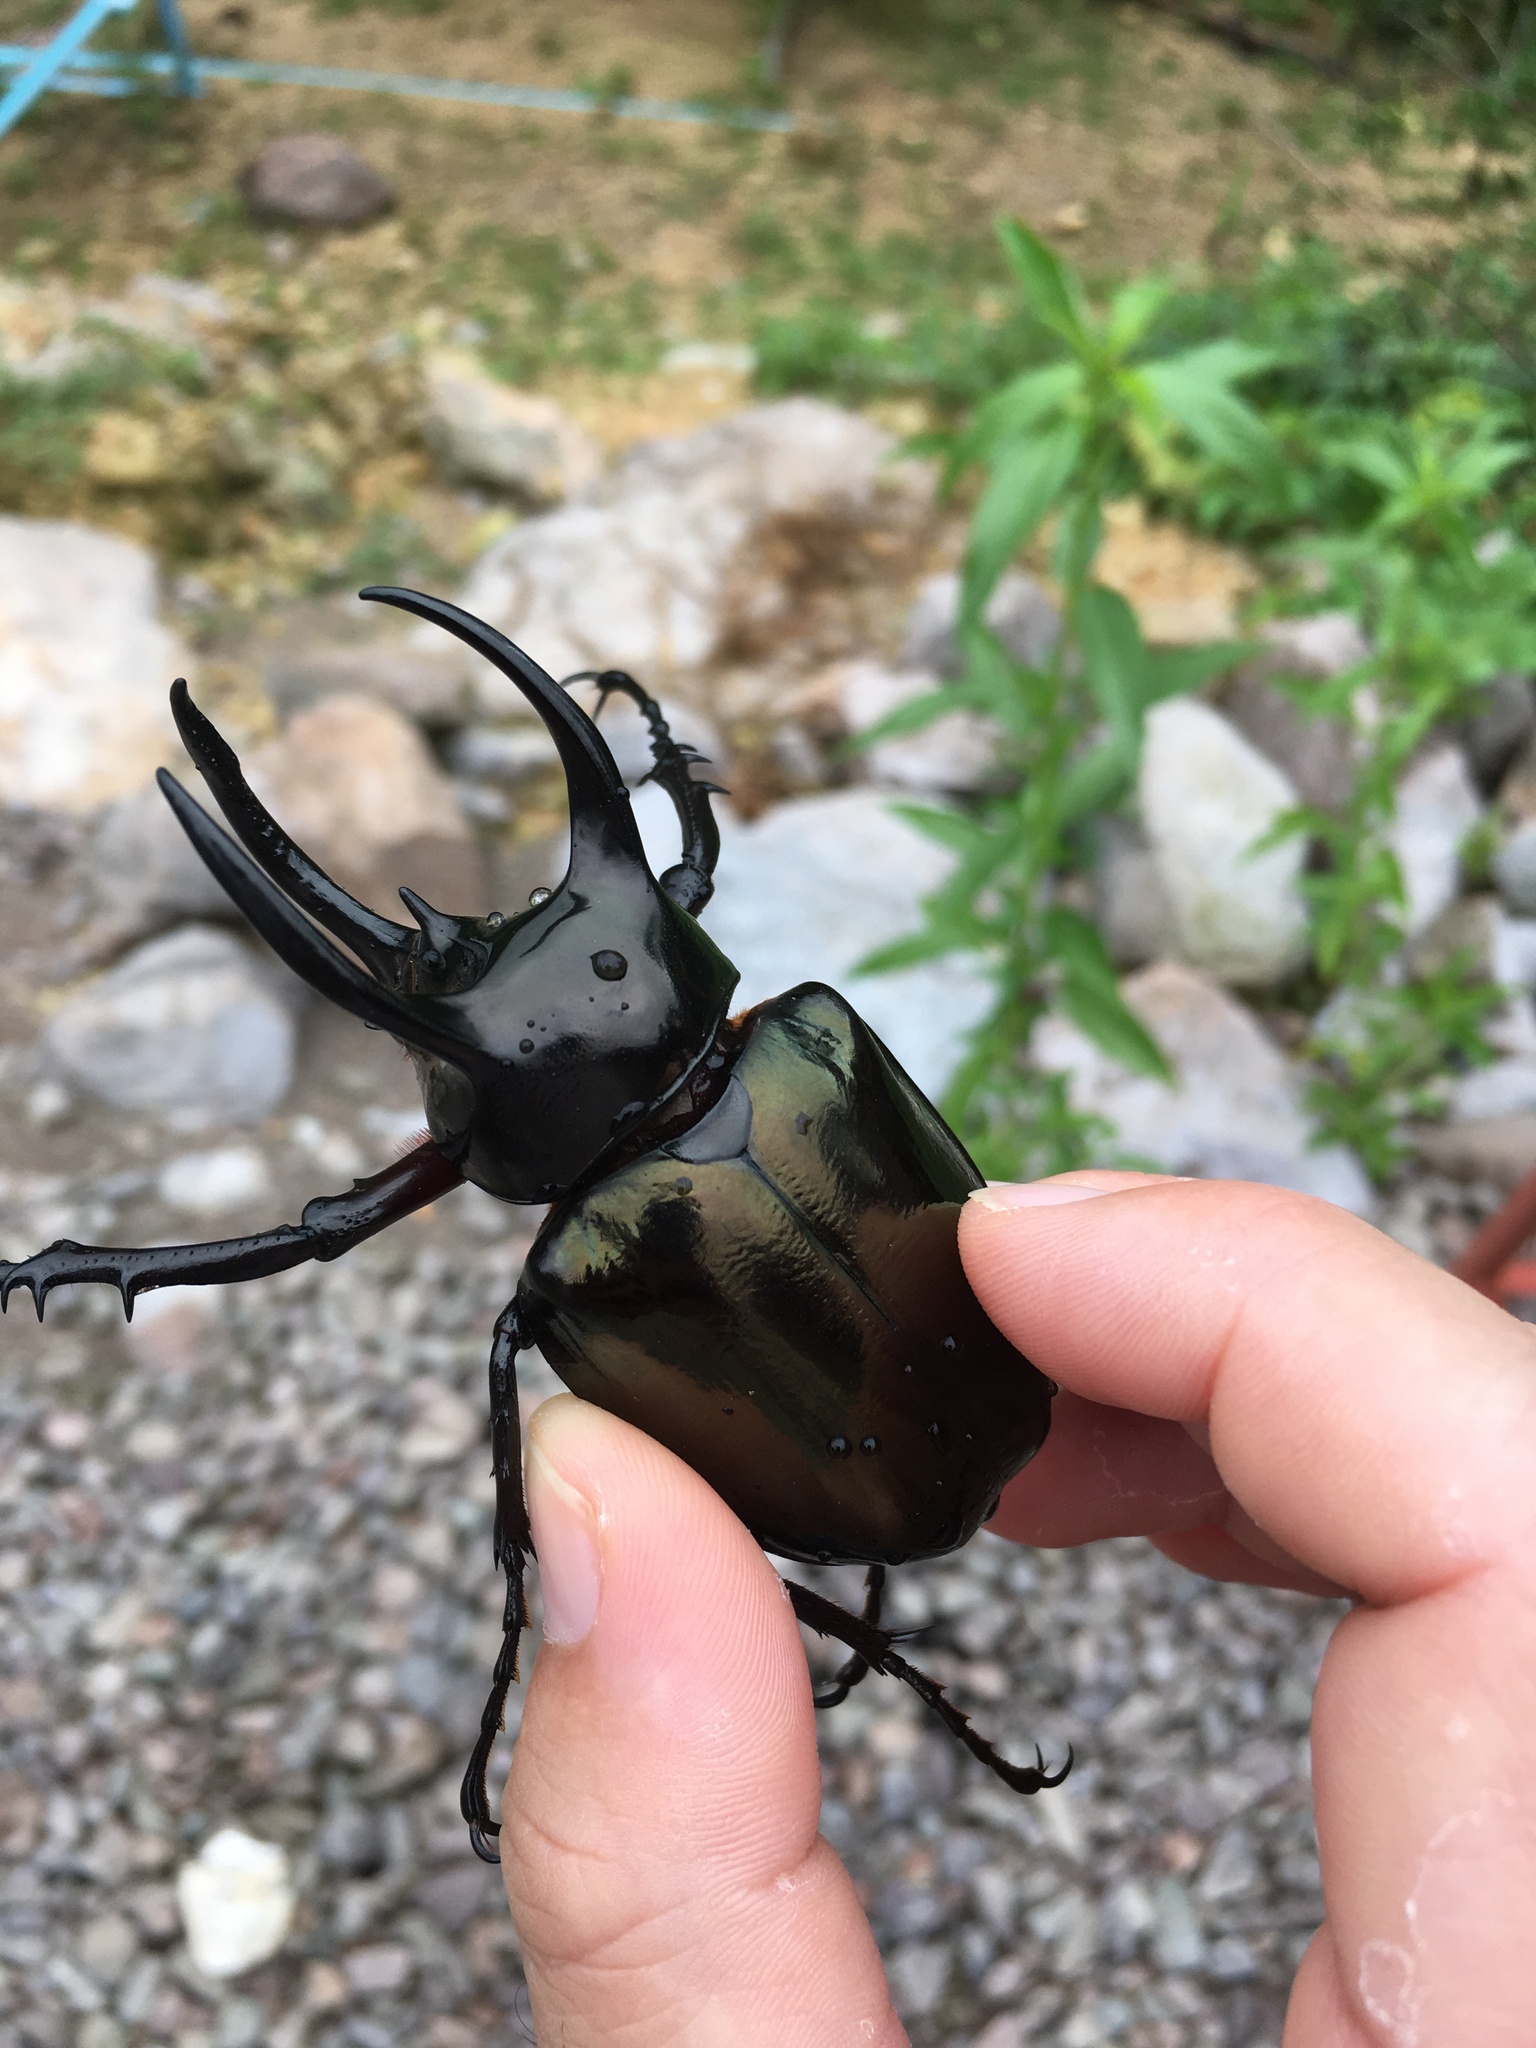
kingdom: Animalia
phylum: Arthropoda
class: Insecta
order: Coleoptera
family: Scarabaeidae
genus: Chalcosoma
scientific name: Chalcosoma atlas
